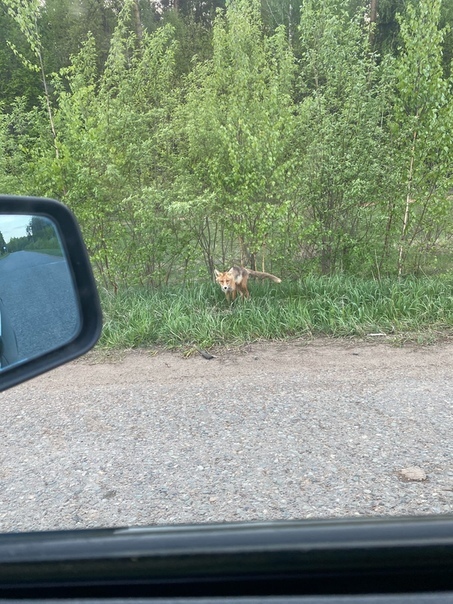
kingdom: Animalia
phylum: Chordata
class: Mammalia
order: Carnivora
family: Canidae
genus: Vulpes
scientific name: Vulpes vulpes
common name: Red fox
